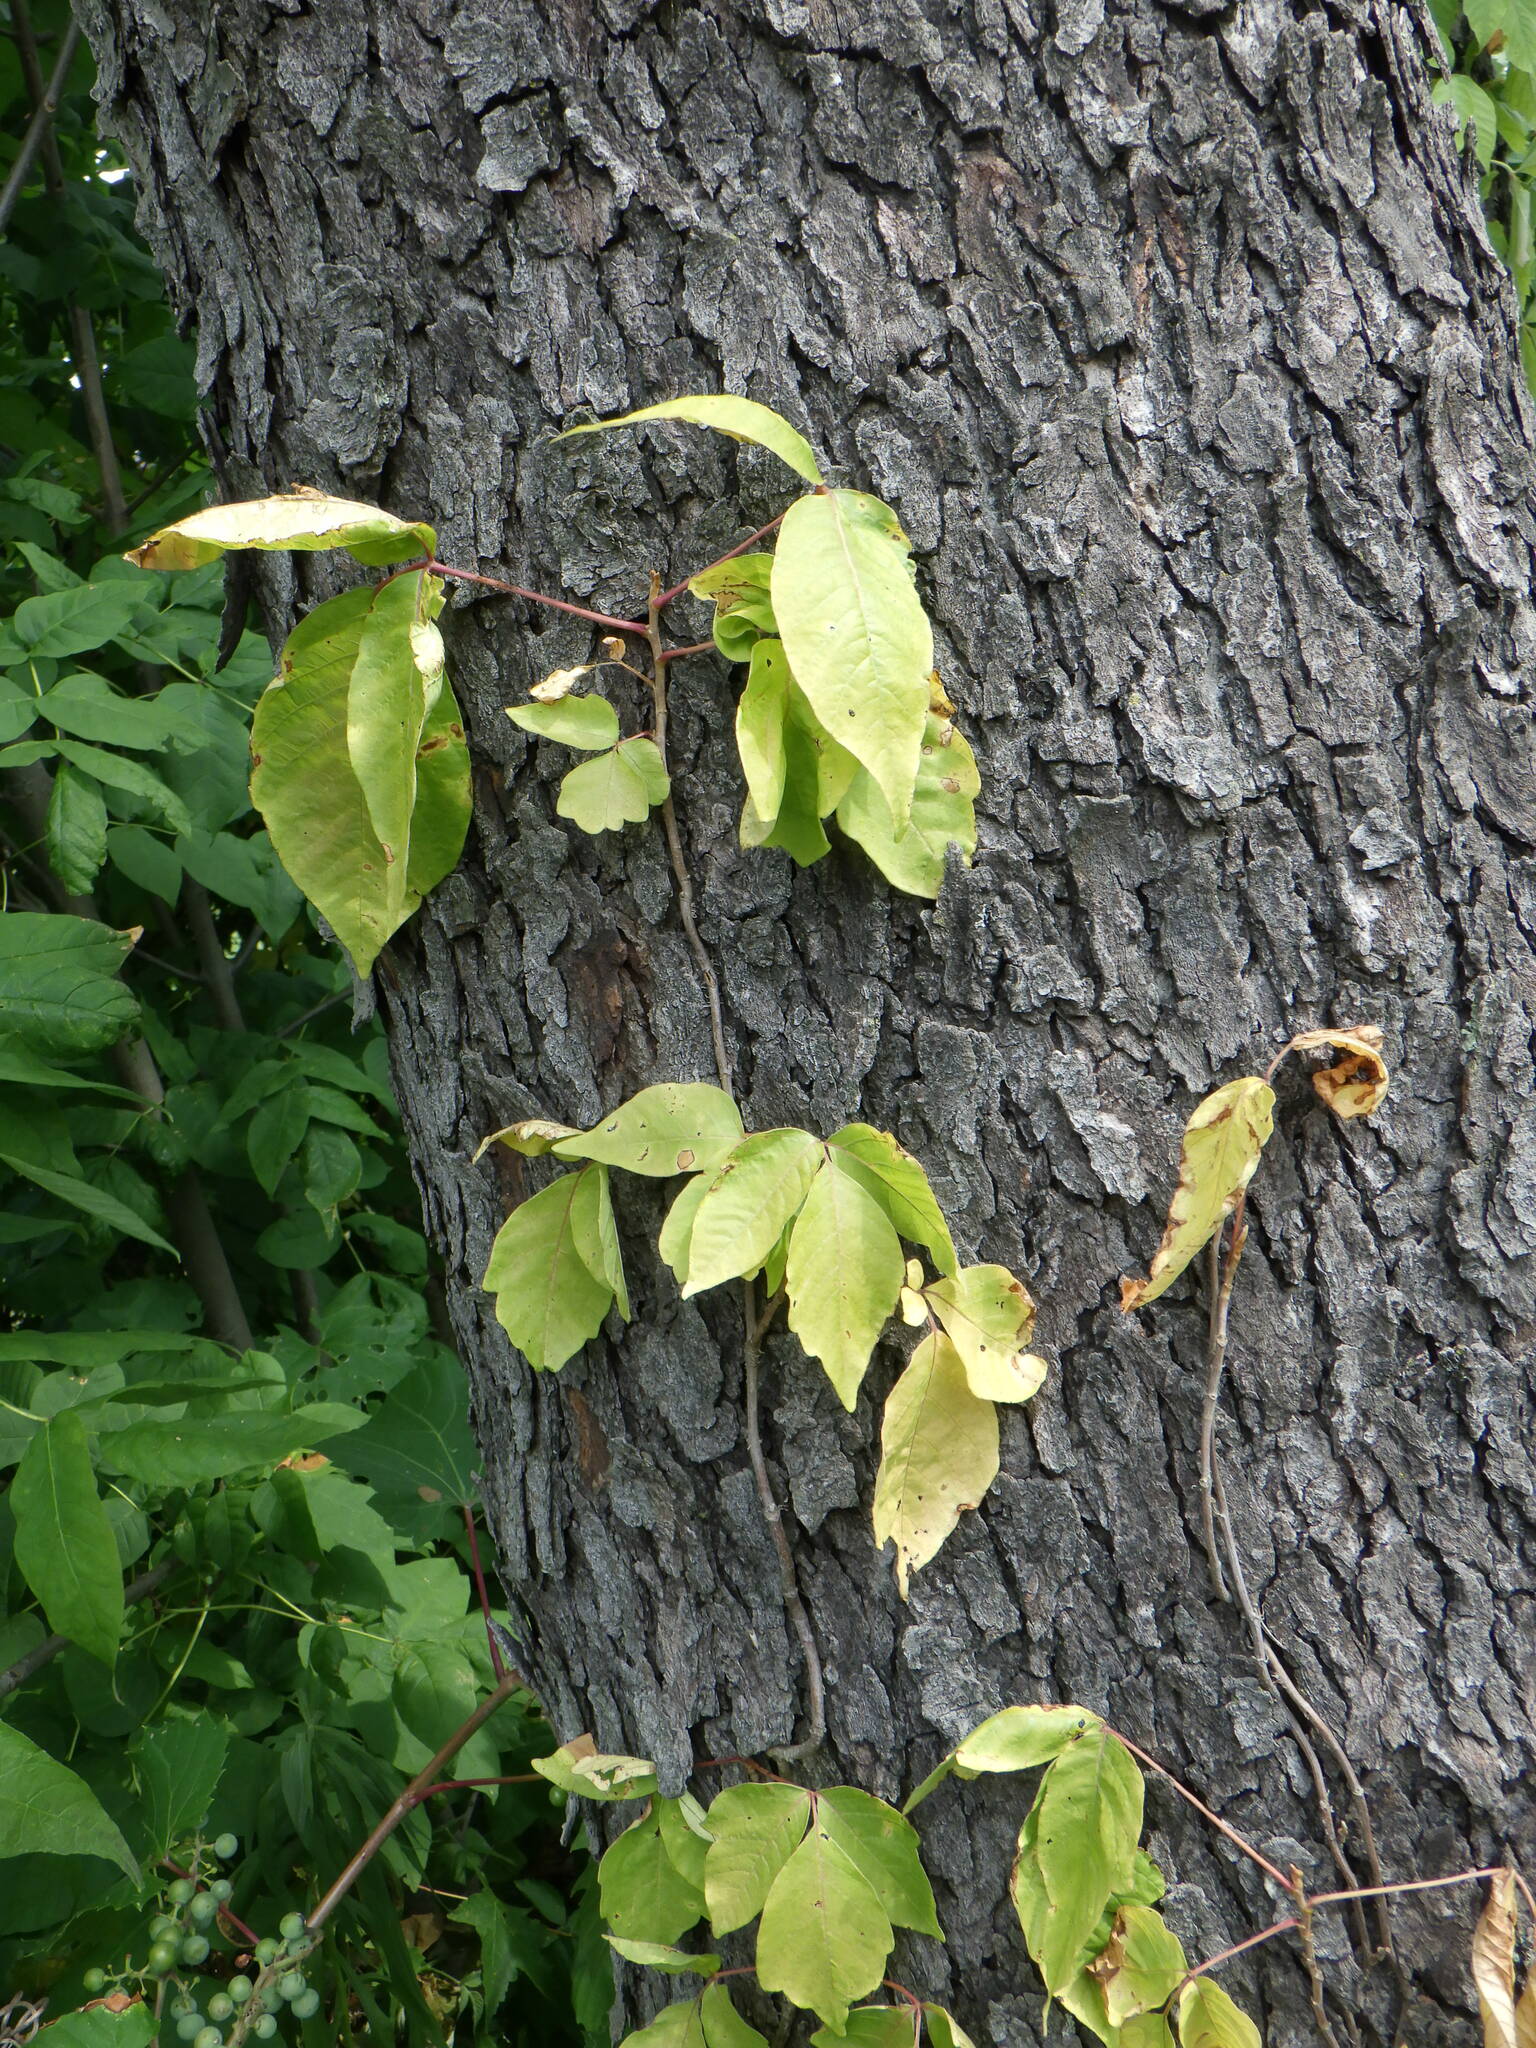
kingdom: Plantae
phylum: Tracheophyta
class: Magnoliopsida
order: Sapindales
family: Anacardiaceae
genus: Toxicodendron
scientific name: Toxicodendron radicans
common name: Poison ivy
